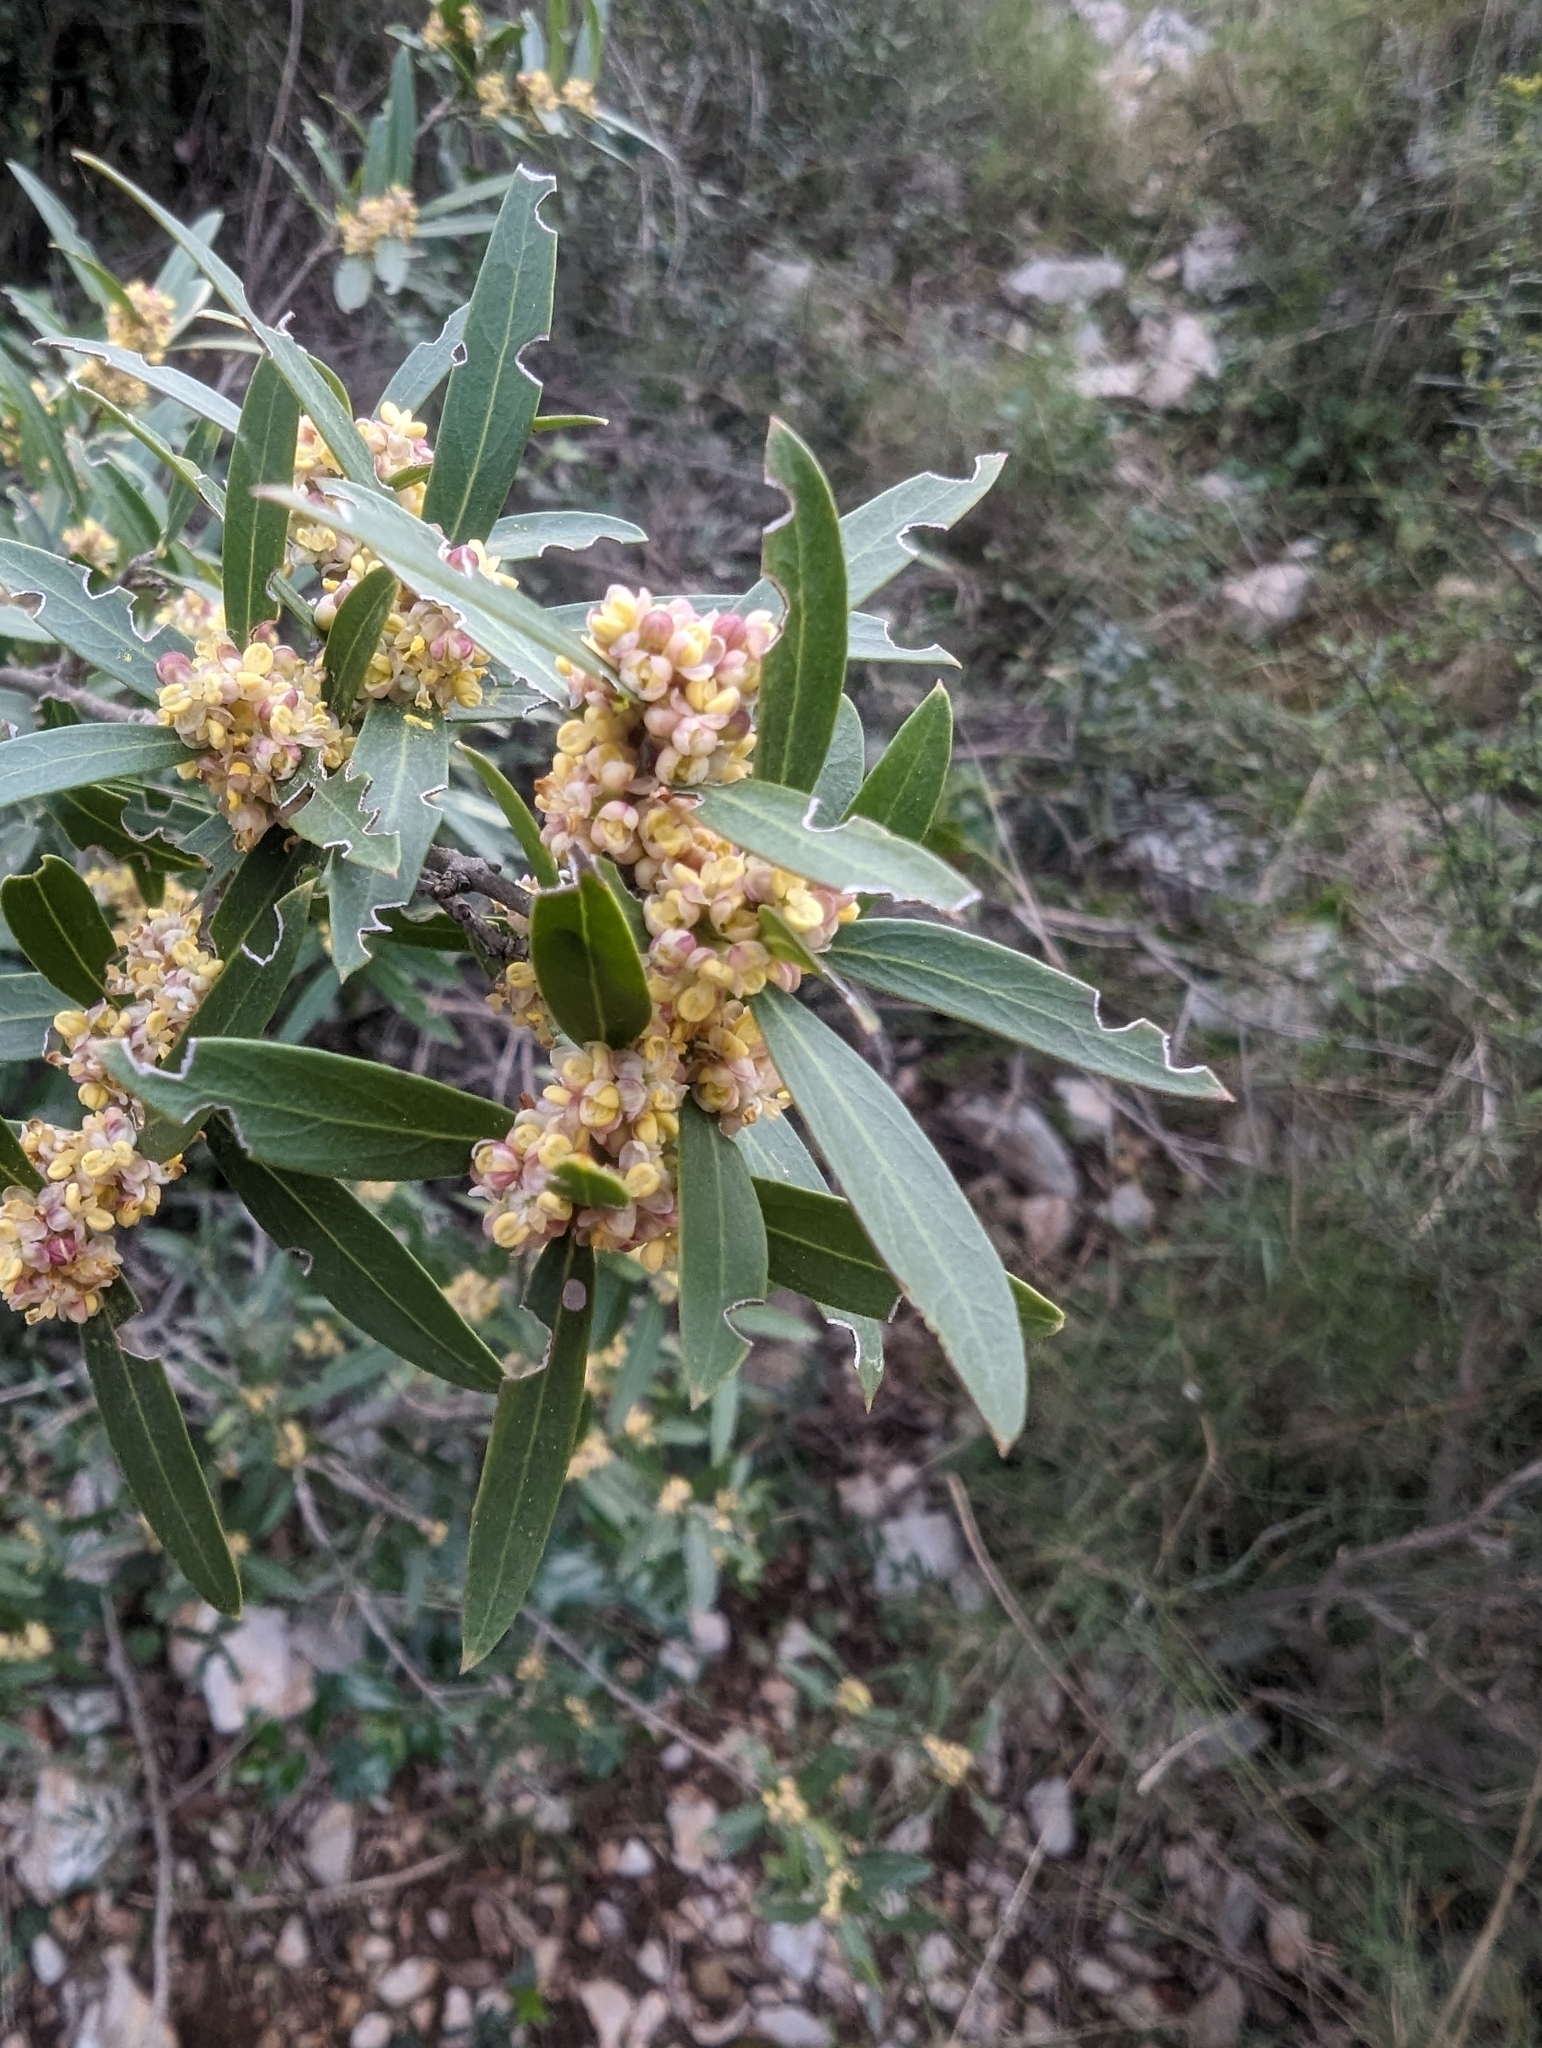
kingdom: Plantae
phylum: Tracheophyta
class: Magnoliopsida
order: Lamiales
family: Oleaceae
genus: Phillyrea
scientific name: Phillyrea angustifolia
